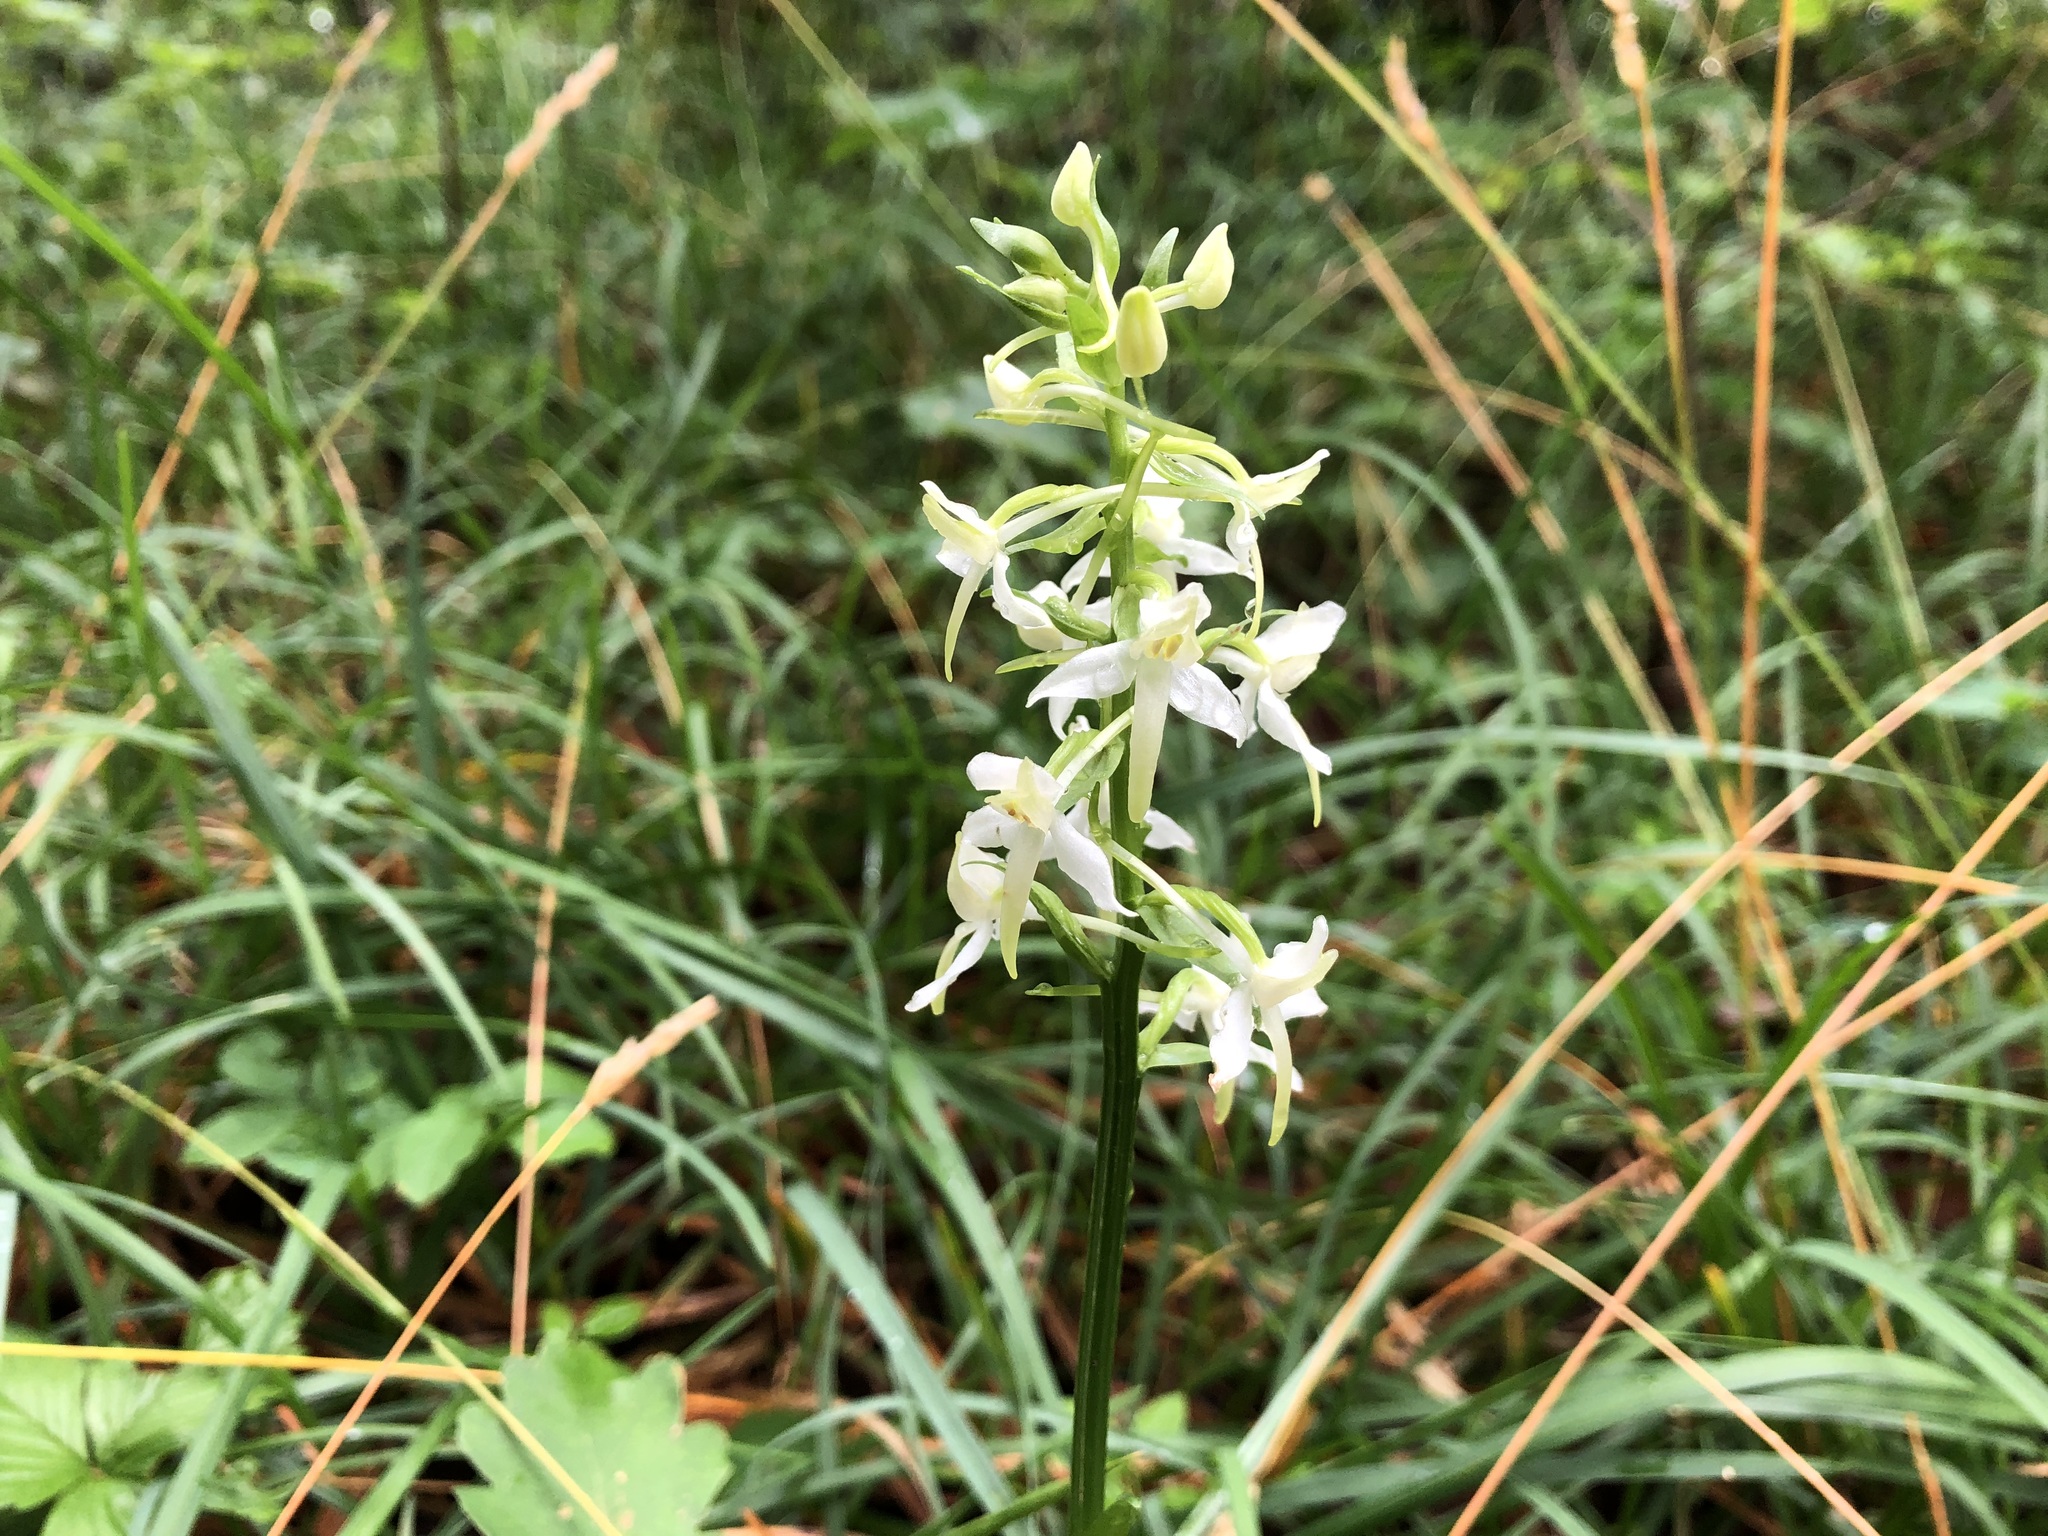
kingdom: Plantae
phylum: Tracheophyta
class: Liliopsida
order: Asparagales
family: Orchidaceae
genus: Platanthera
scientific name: Platanthera bifolia
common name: Lesser butterfly-orchid
